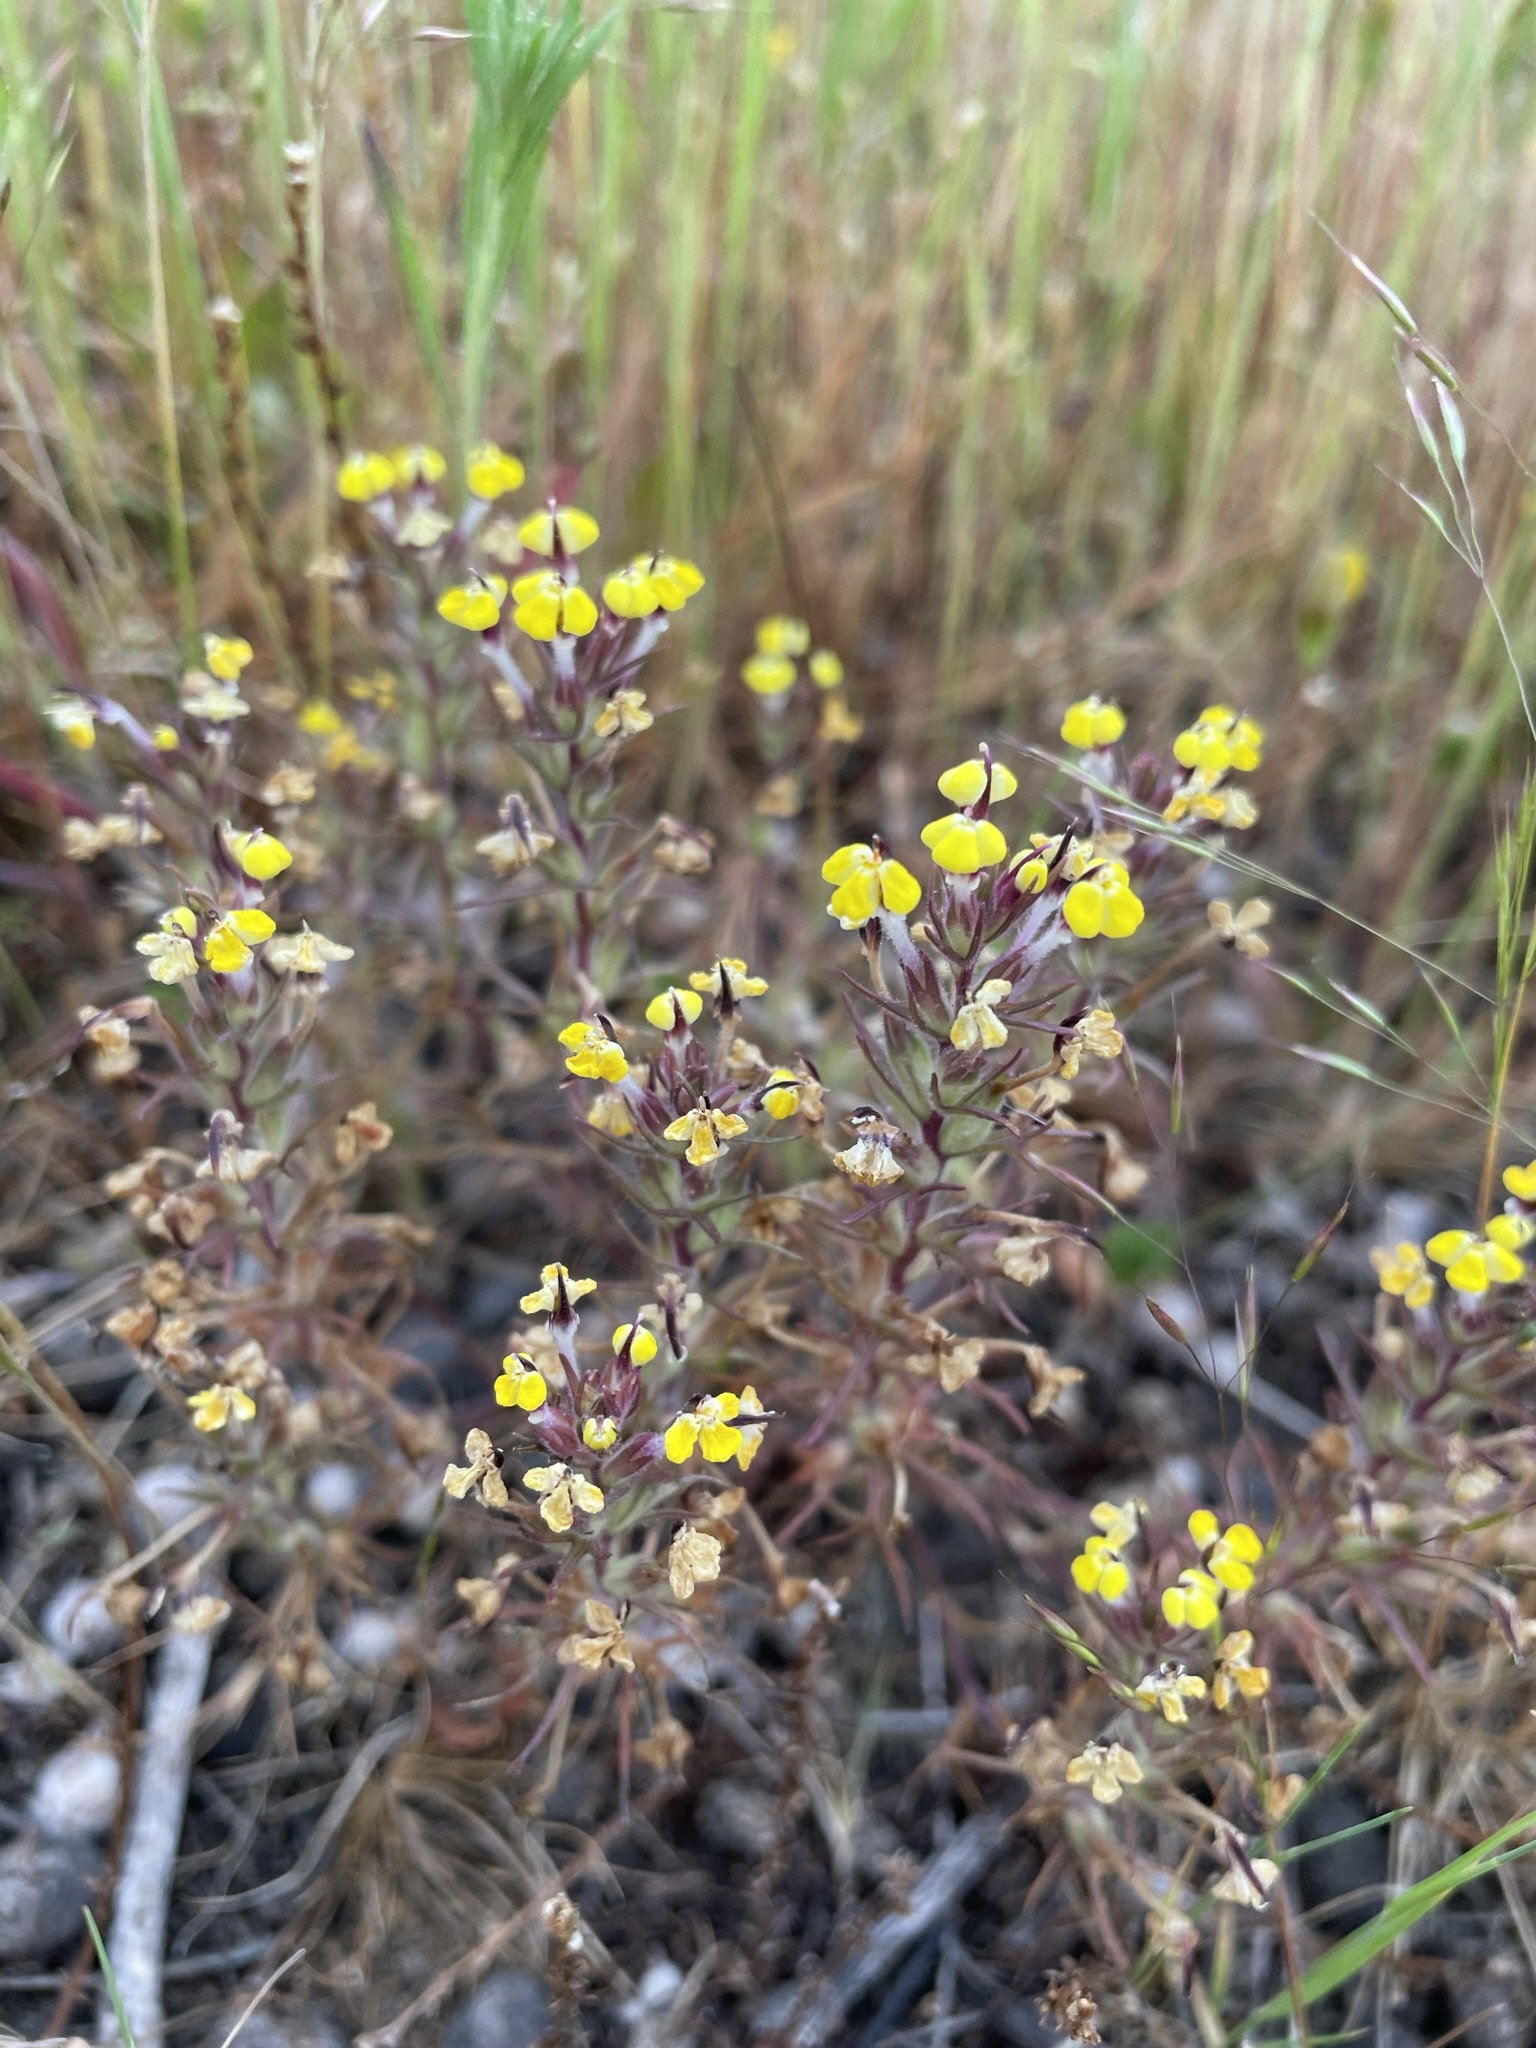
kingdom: Plantae
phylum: Tracheophyta
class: Magnoliopsida
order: Lamiales
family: Orobanchaceae
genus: Triphysaria
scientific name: Triphysaria eriantha
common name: Johnny-tuck
